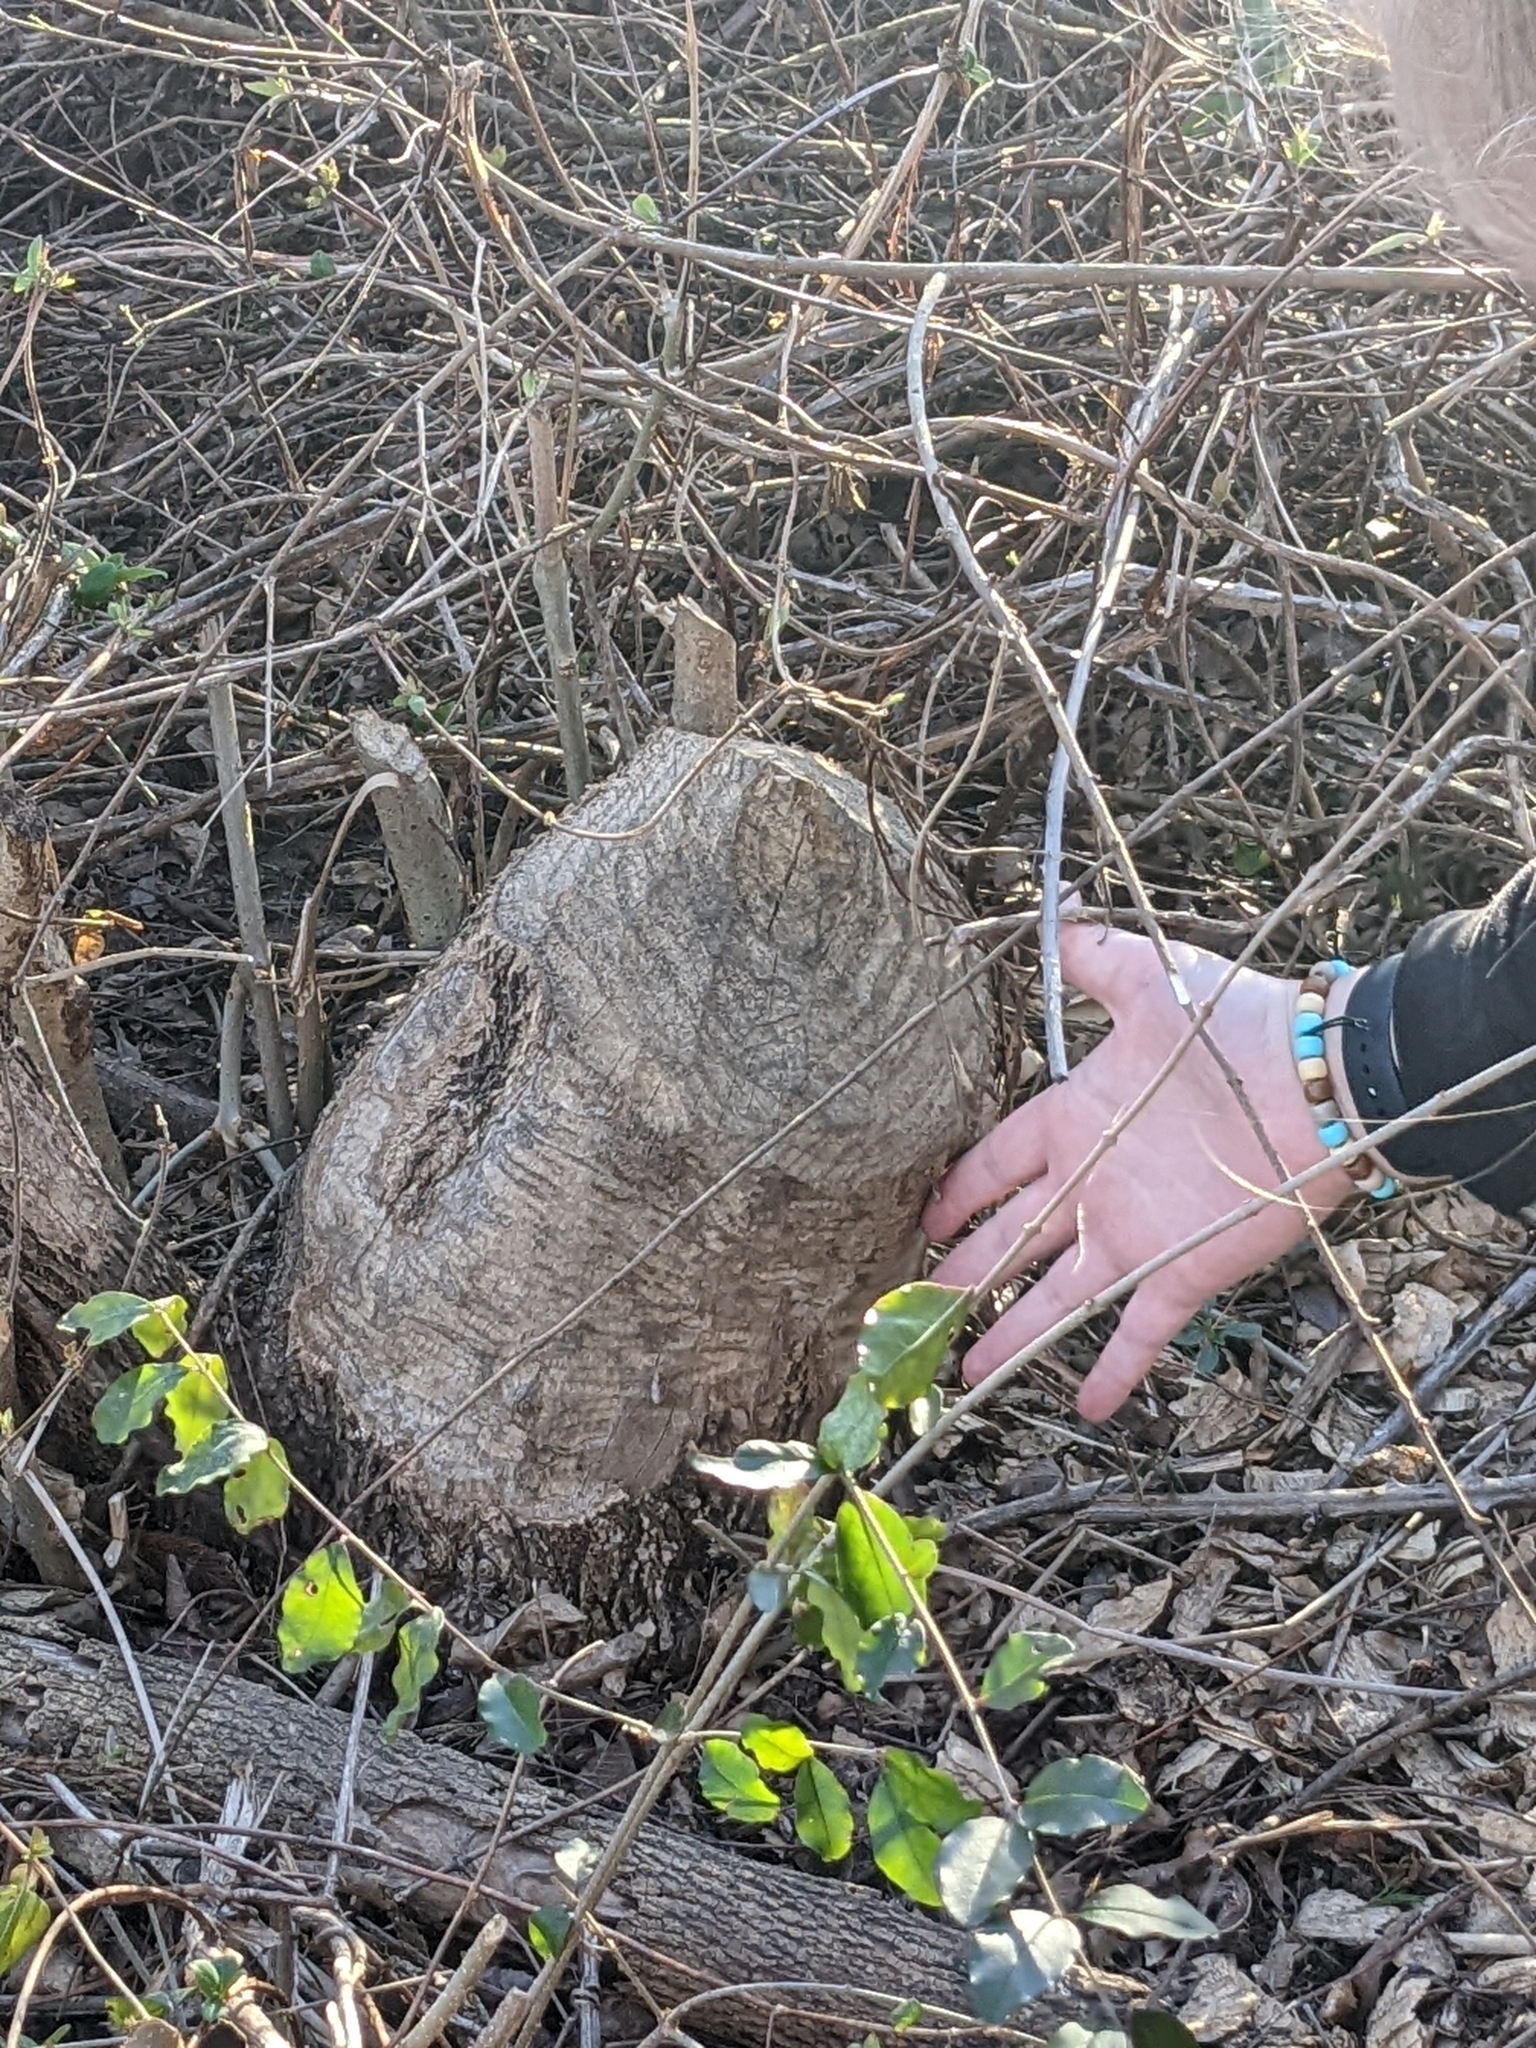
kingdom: Animalia
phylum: Chordata
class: Mammalia
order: Rodentia
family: Castoridae
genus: Castor
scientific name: Castor canadensis
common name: American beaver
